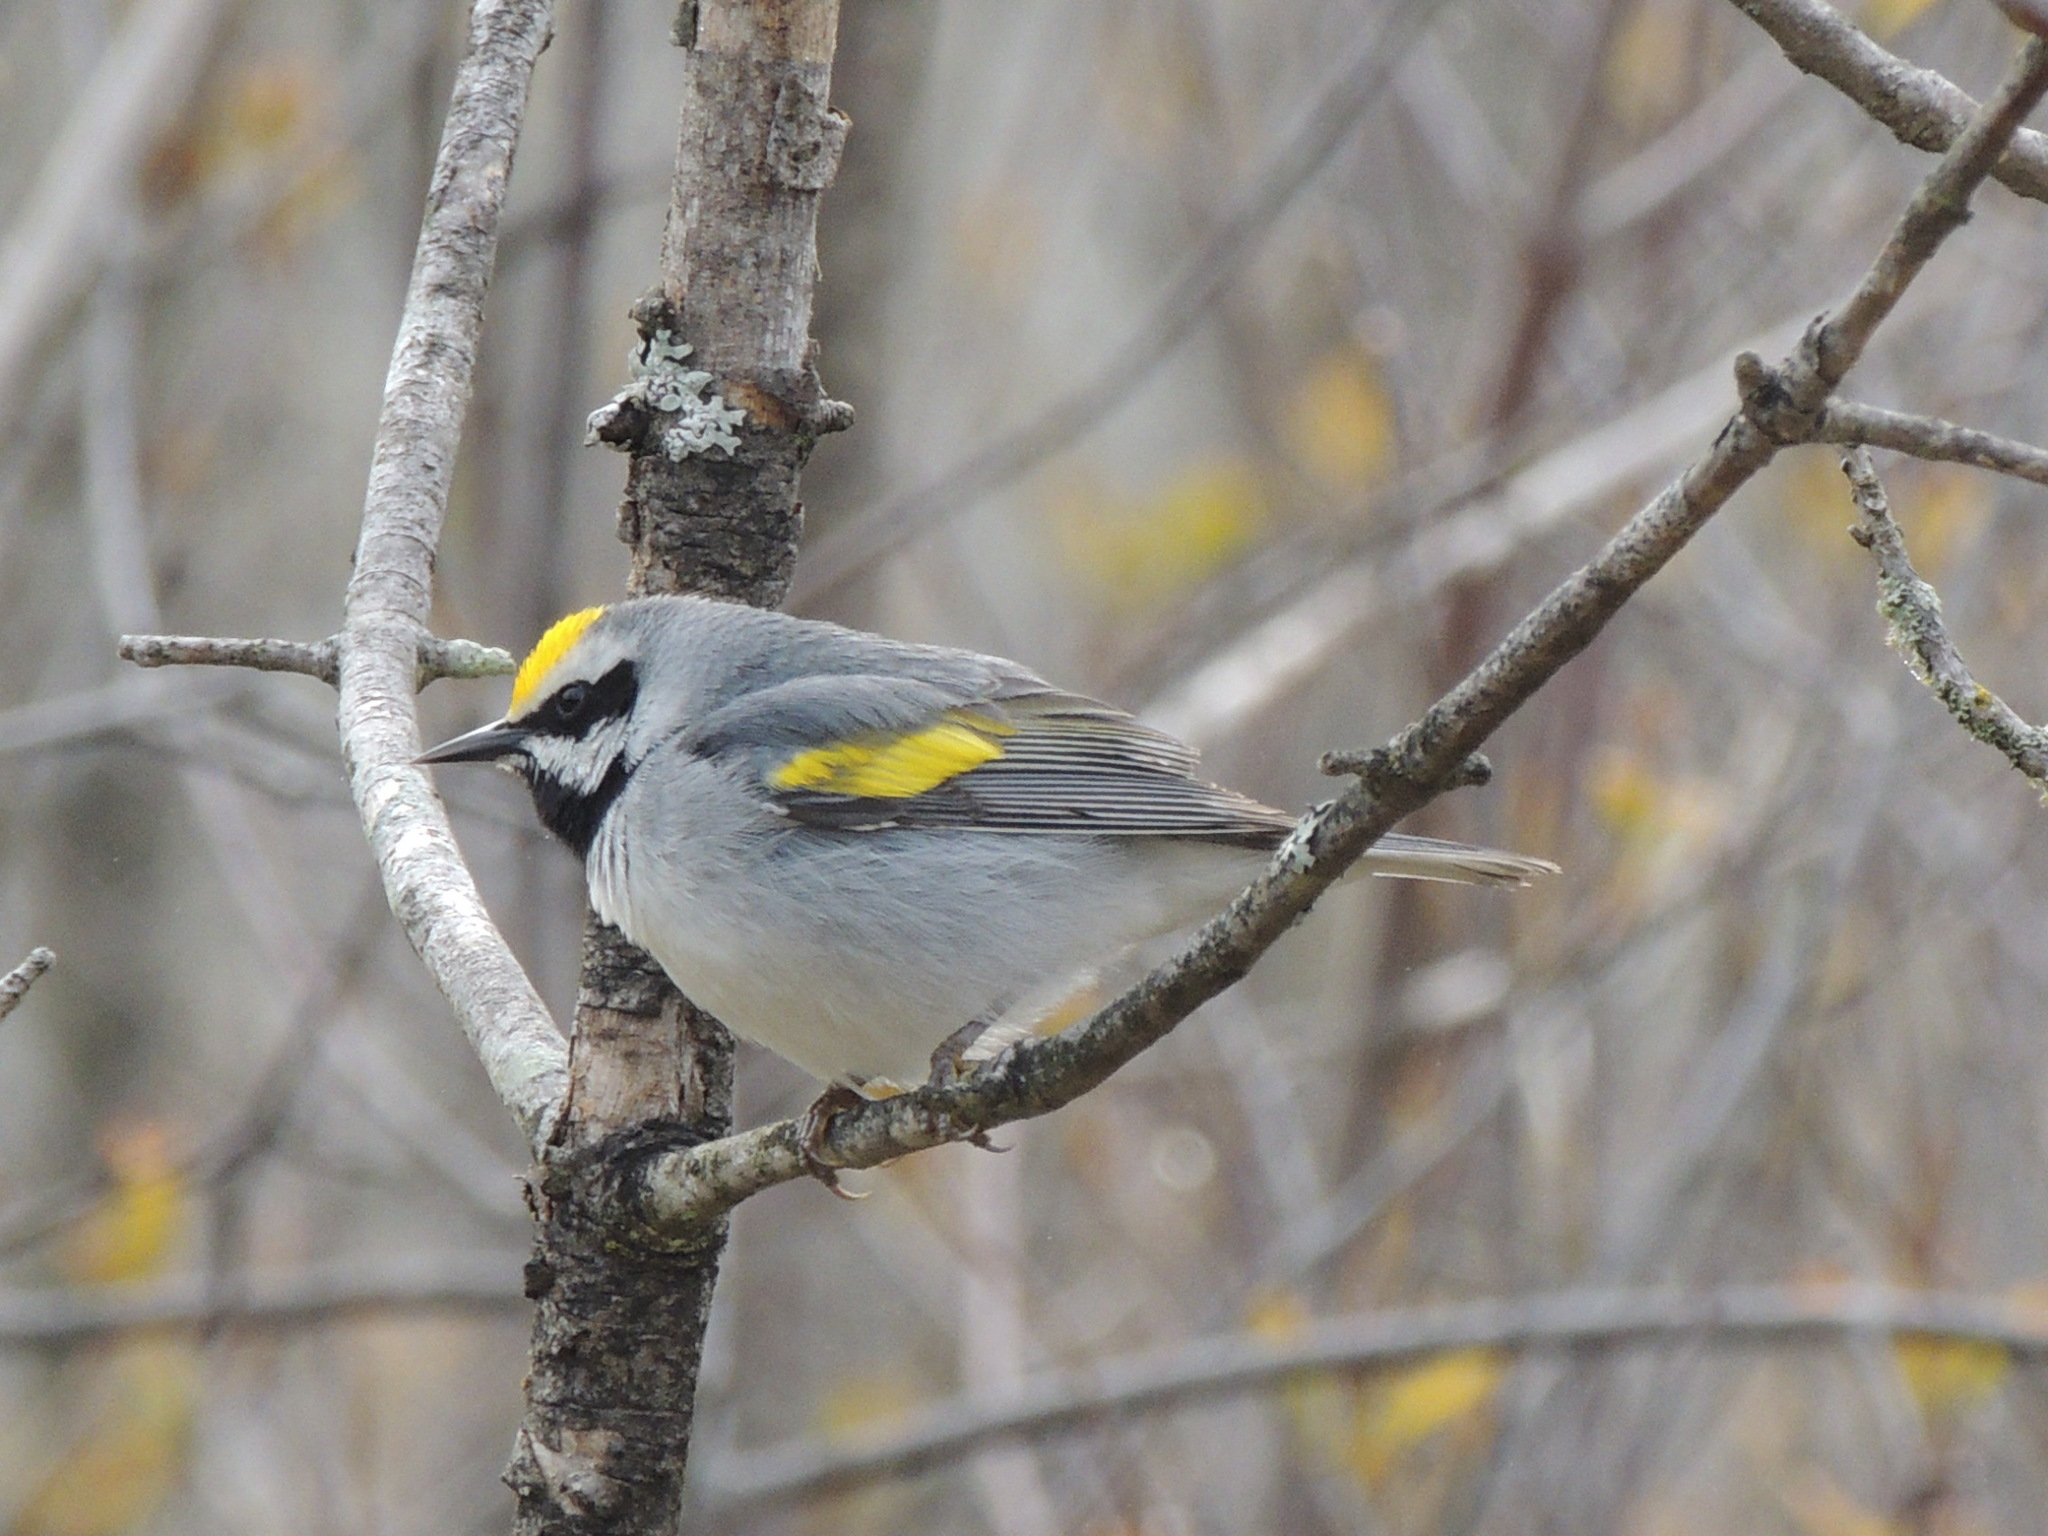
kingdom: Animalia
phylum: Chordata
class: Aves
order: Passeriformes
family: Parulidae
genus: Vermivora
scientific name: Vermivora chrysoptera
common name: Golden-winged warbler
